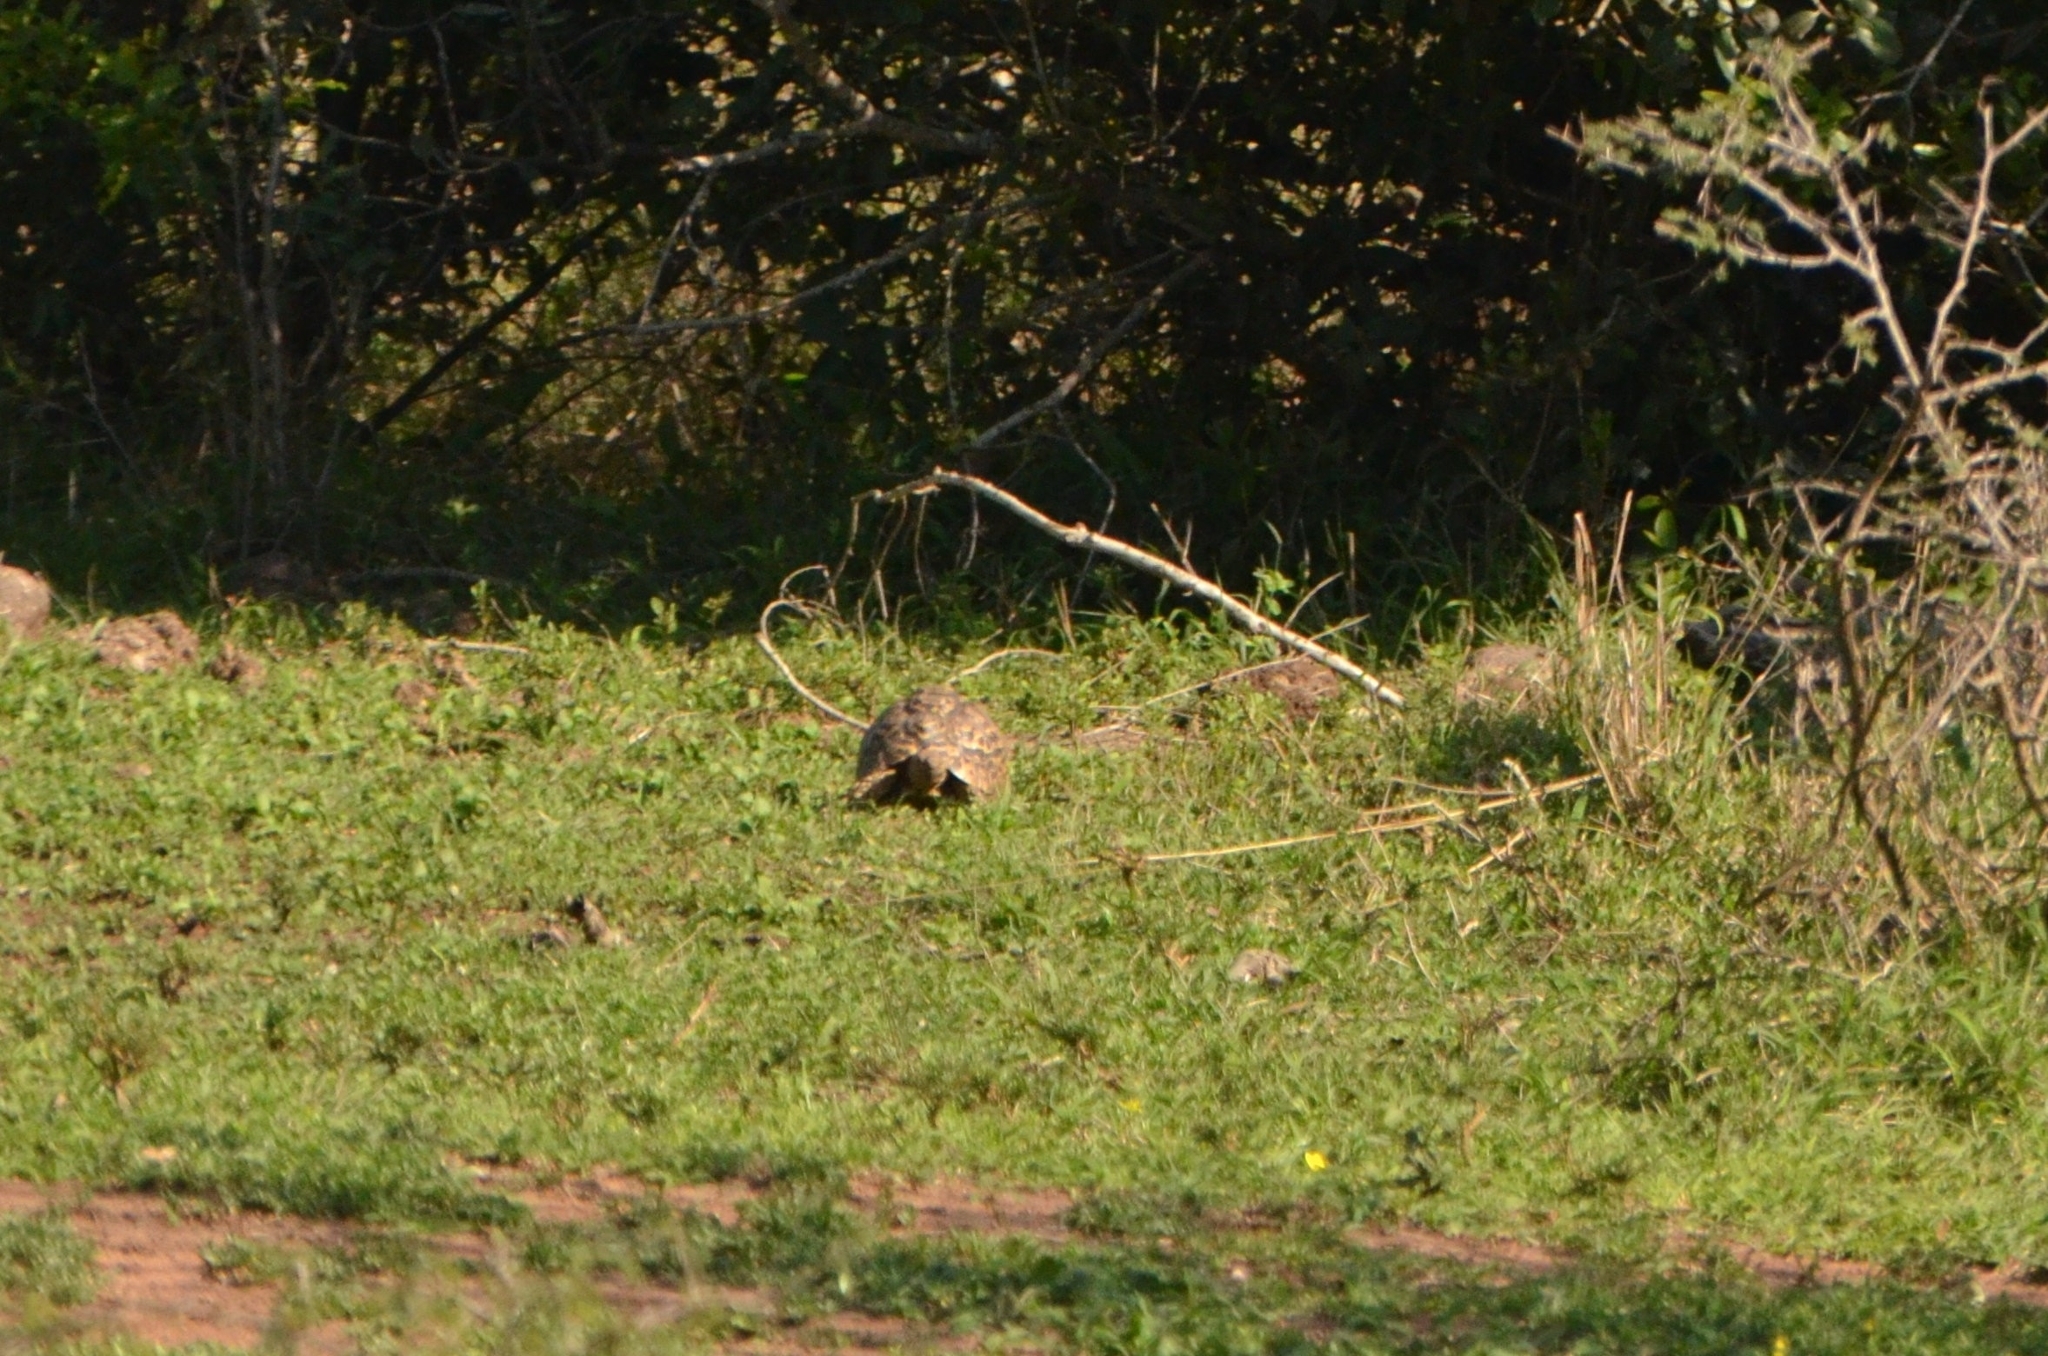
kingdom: Animalia
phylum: Chordata
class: Testudines
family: Testudinidae
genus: Stigmochelys
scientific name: Stigmochelys pardalis
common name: Leopard tortoise
